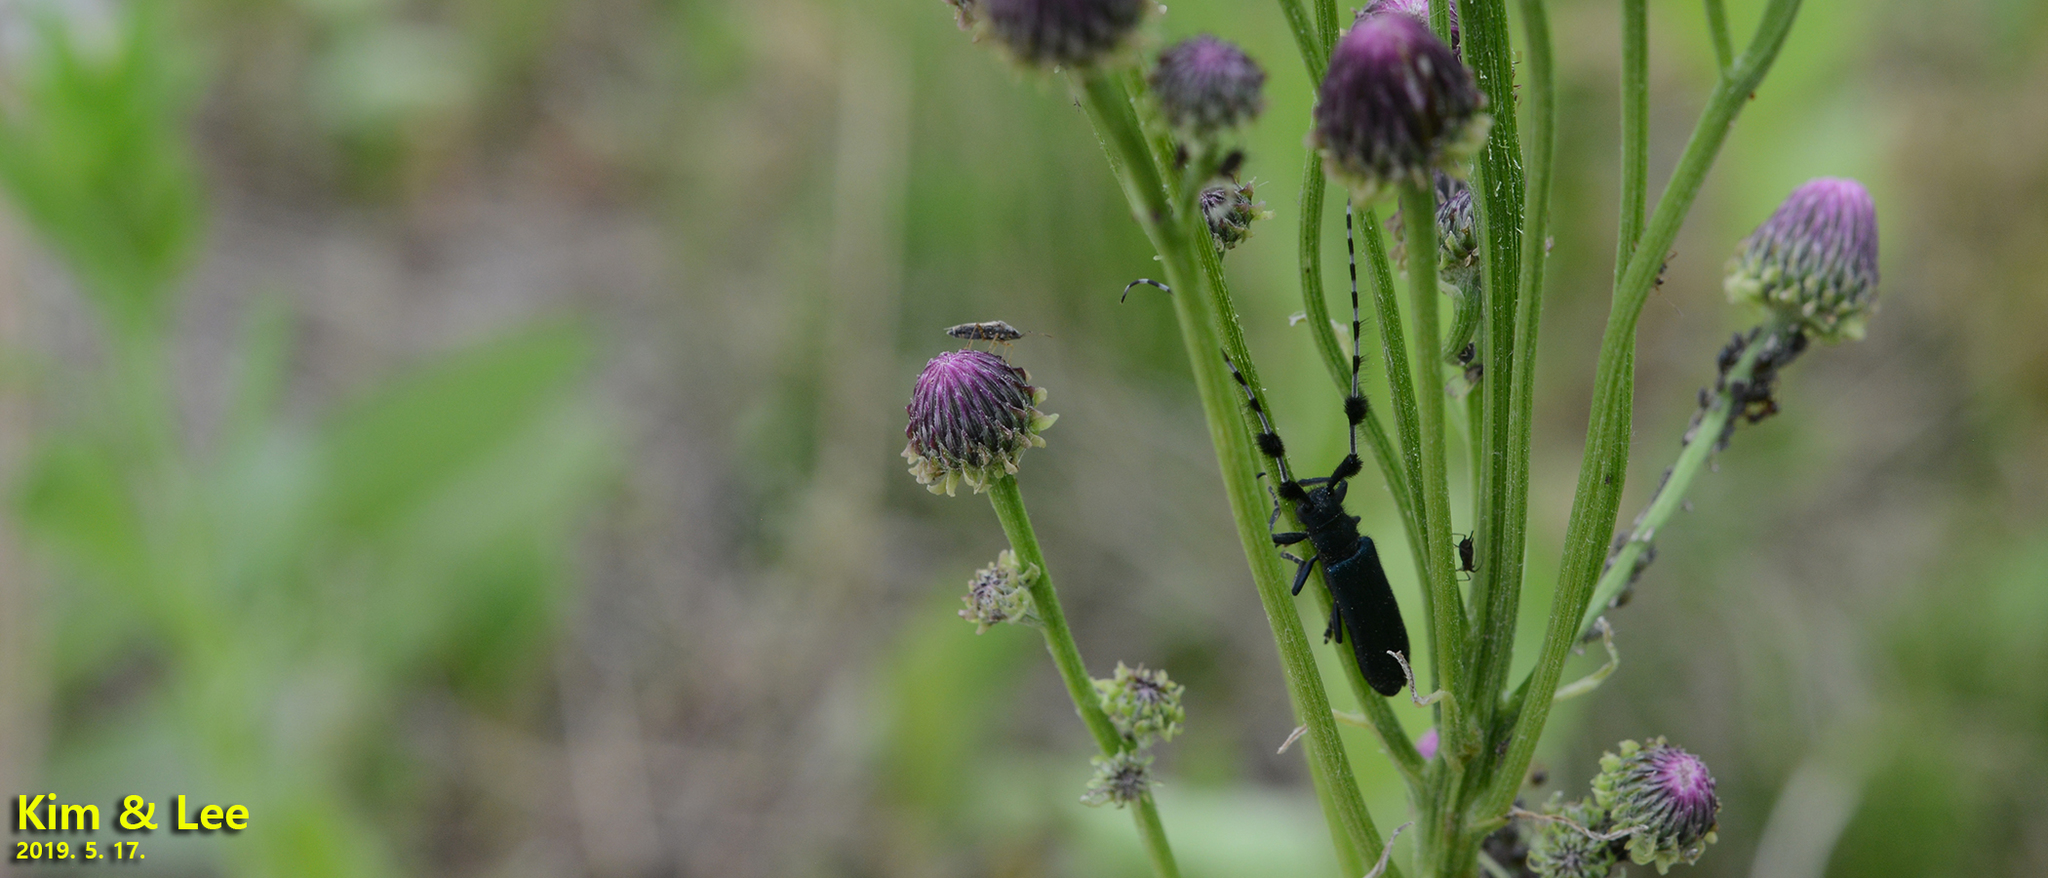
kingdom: Animalia
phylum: Arthropoda
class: Insecta
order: Coleoptera
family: Cerambycidae
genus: Agapanthia
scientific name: Agapanthia amurensis
